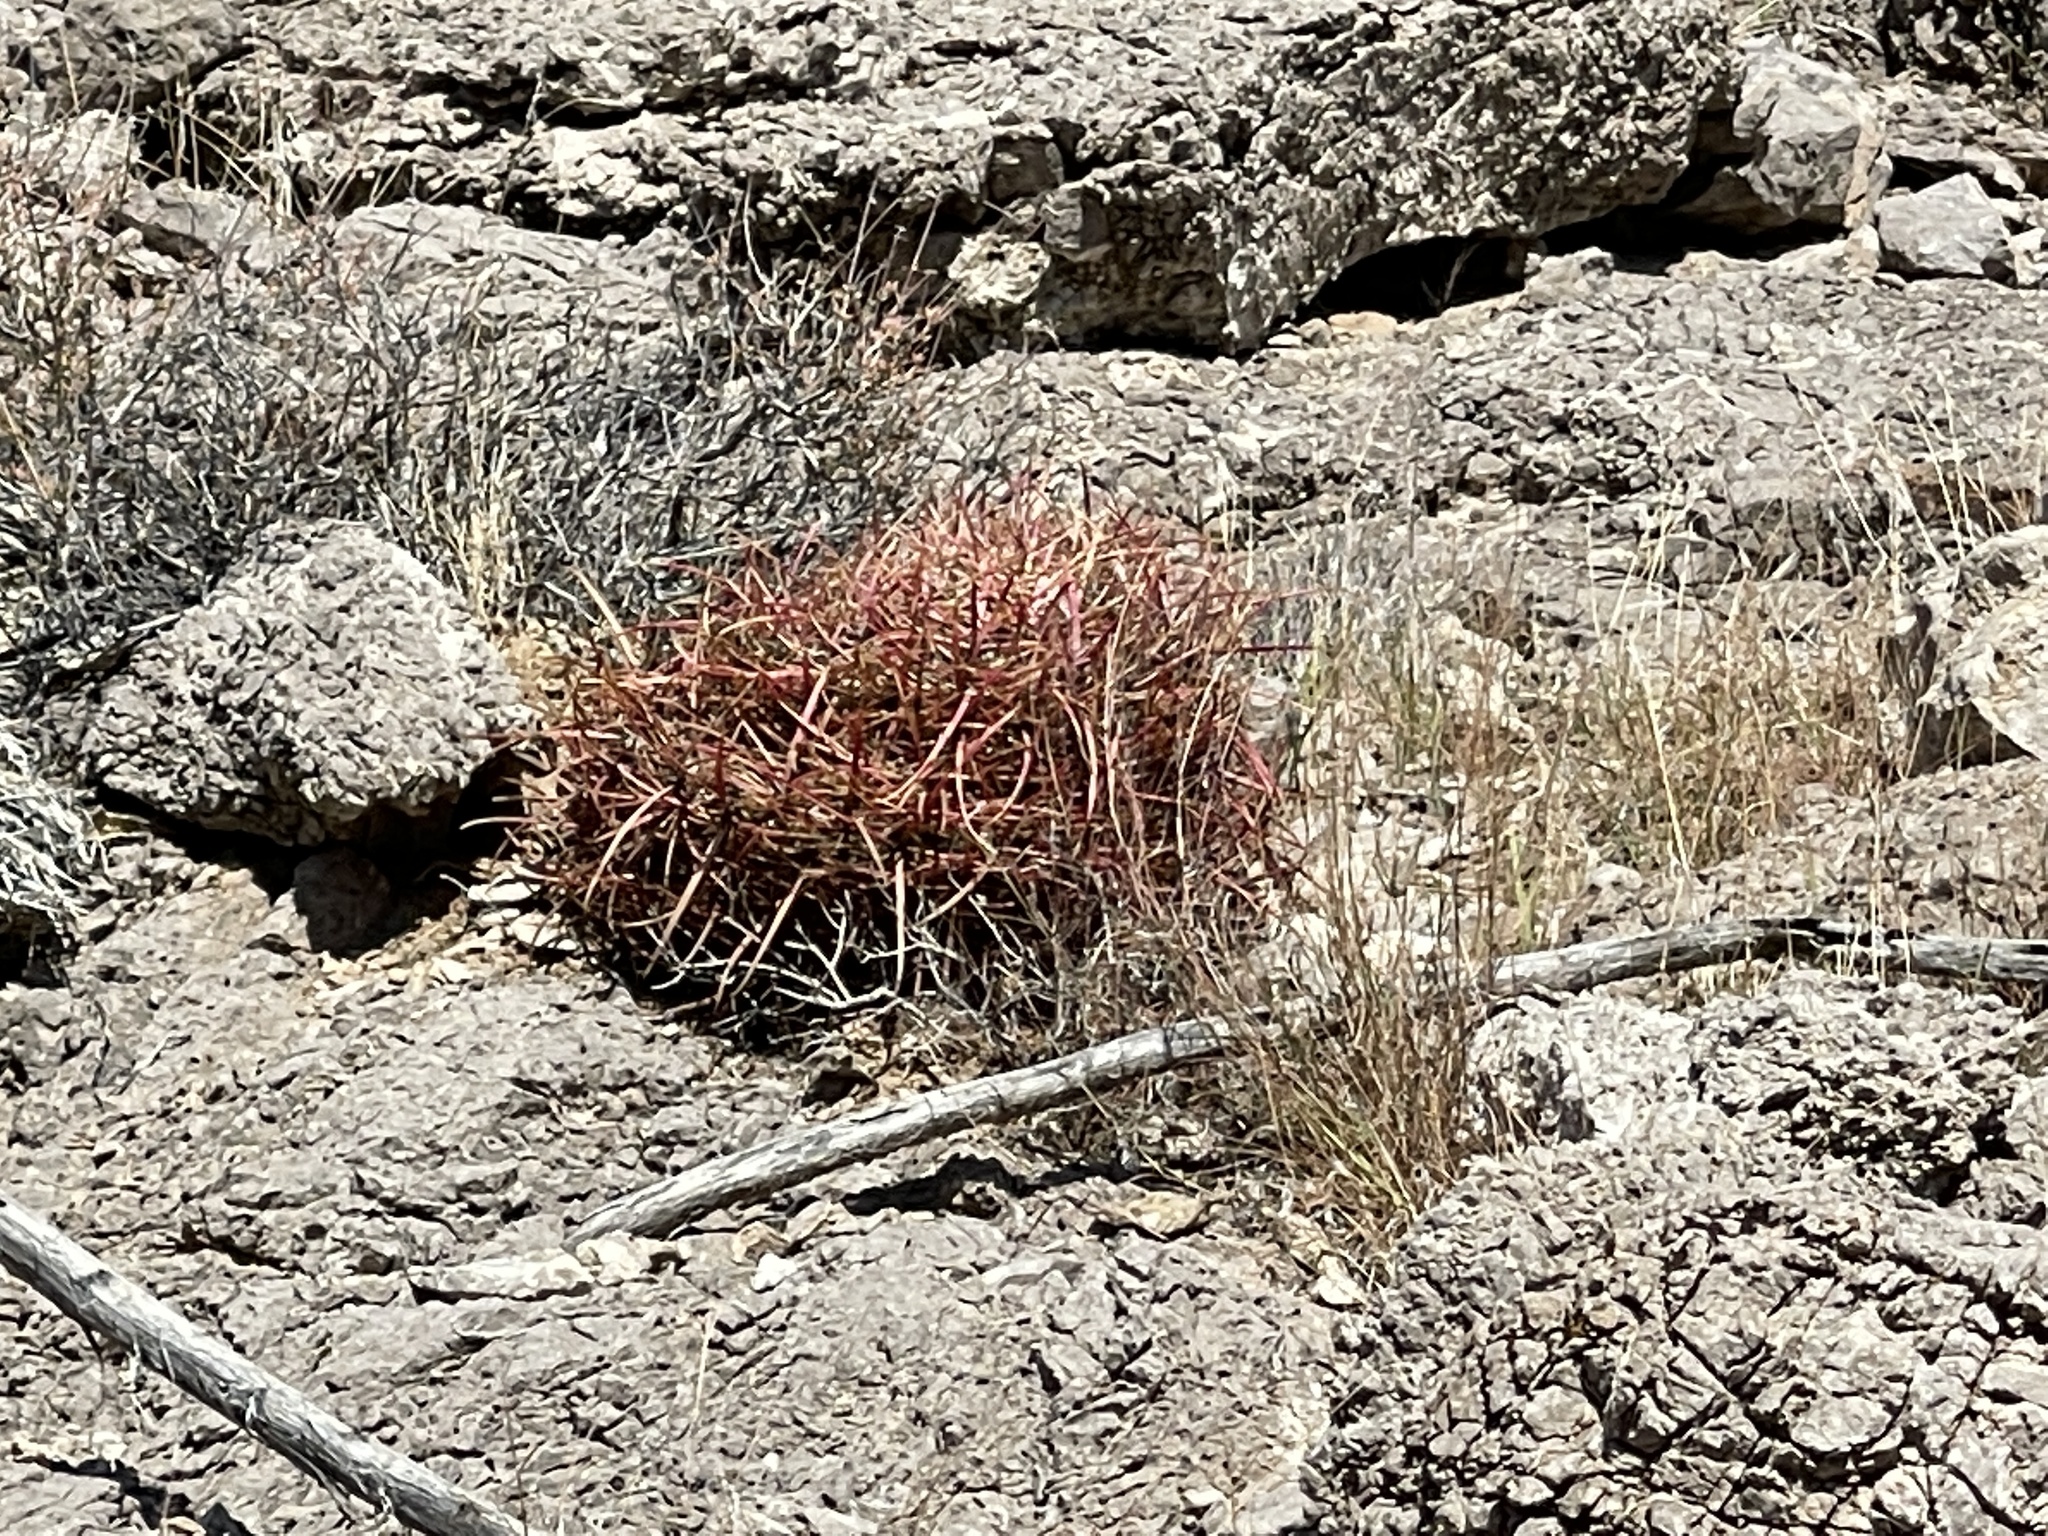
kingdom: Plantae
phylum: Tracheophyta
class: Magnoliopsida
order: Caryophyllales
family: Cactaceae
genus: Ferocactus
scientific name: Ferocactus cylindraceus
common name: California barrel cactus
